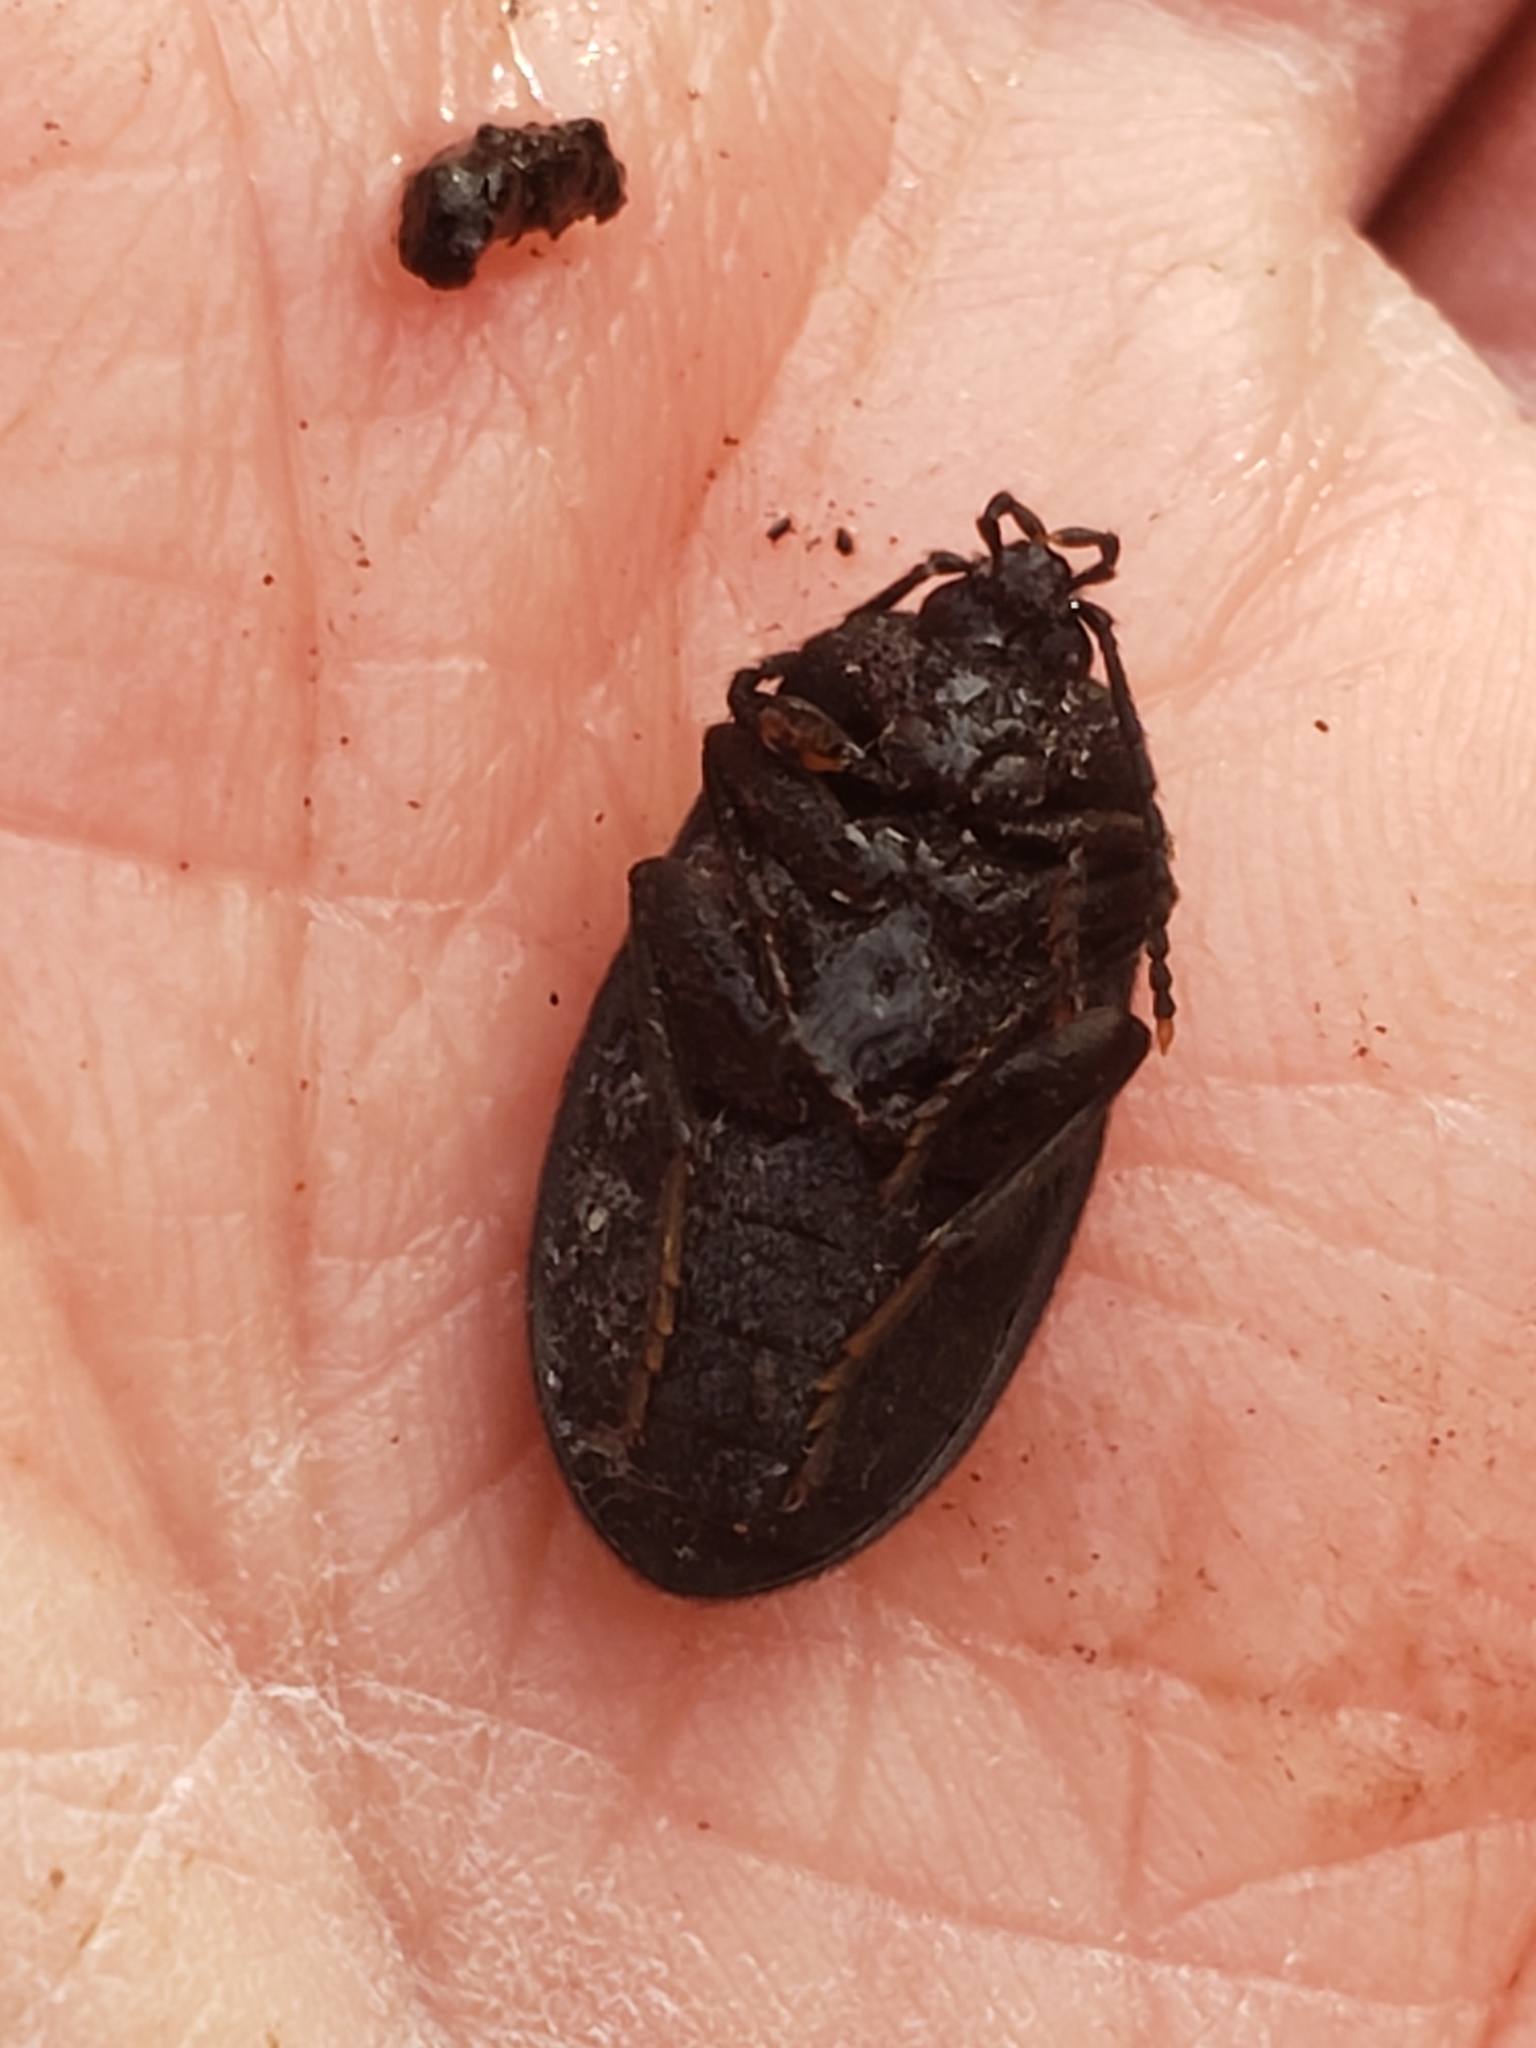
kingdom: Animalia
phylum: Arthropoda
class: Insecta
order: Coleoptera
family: Tetratomidae
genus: Penthe
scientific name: Penthe pimelia
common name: Velvety bark beetle
